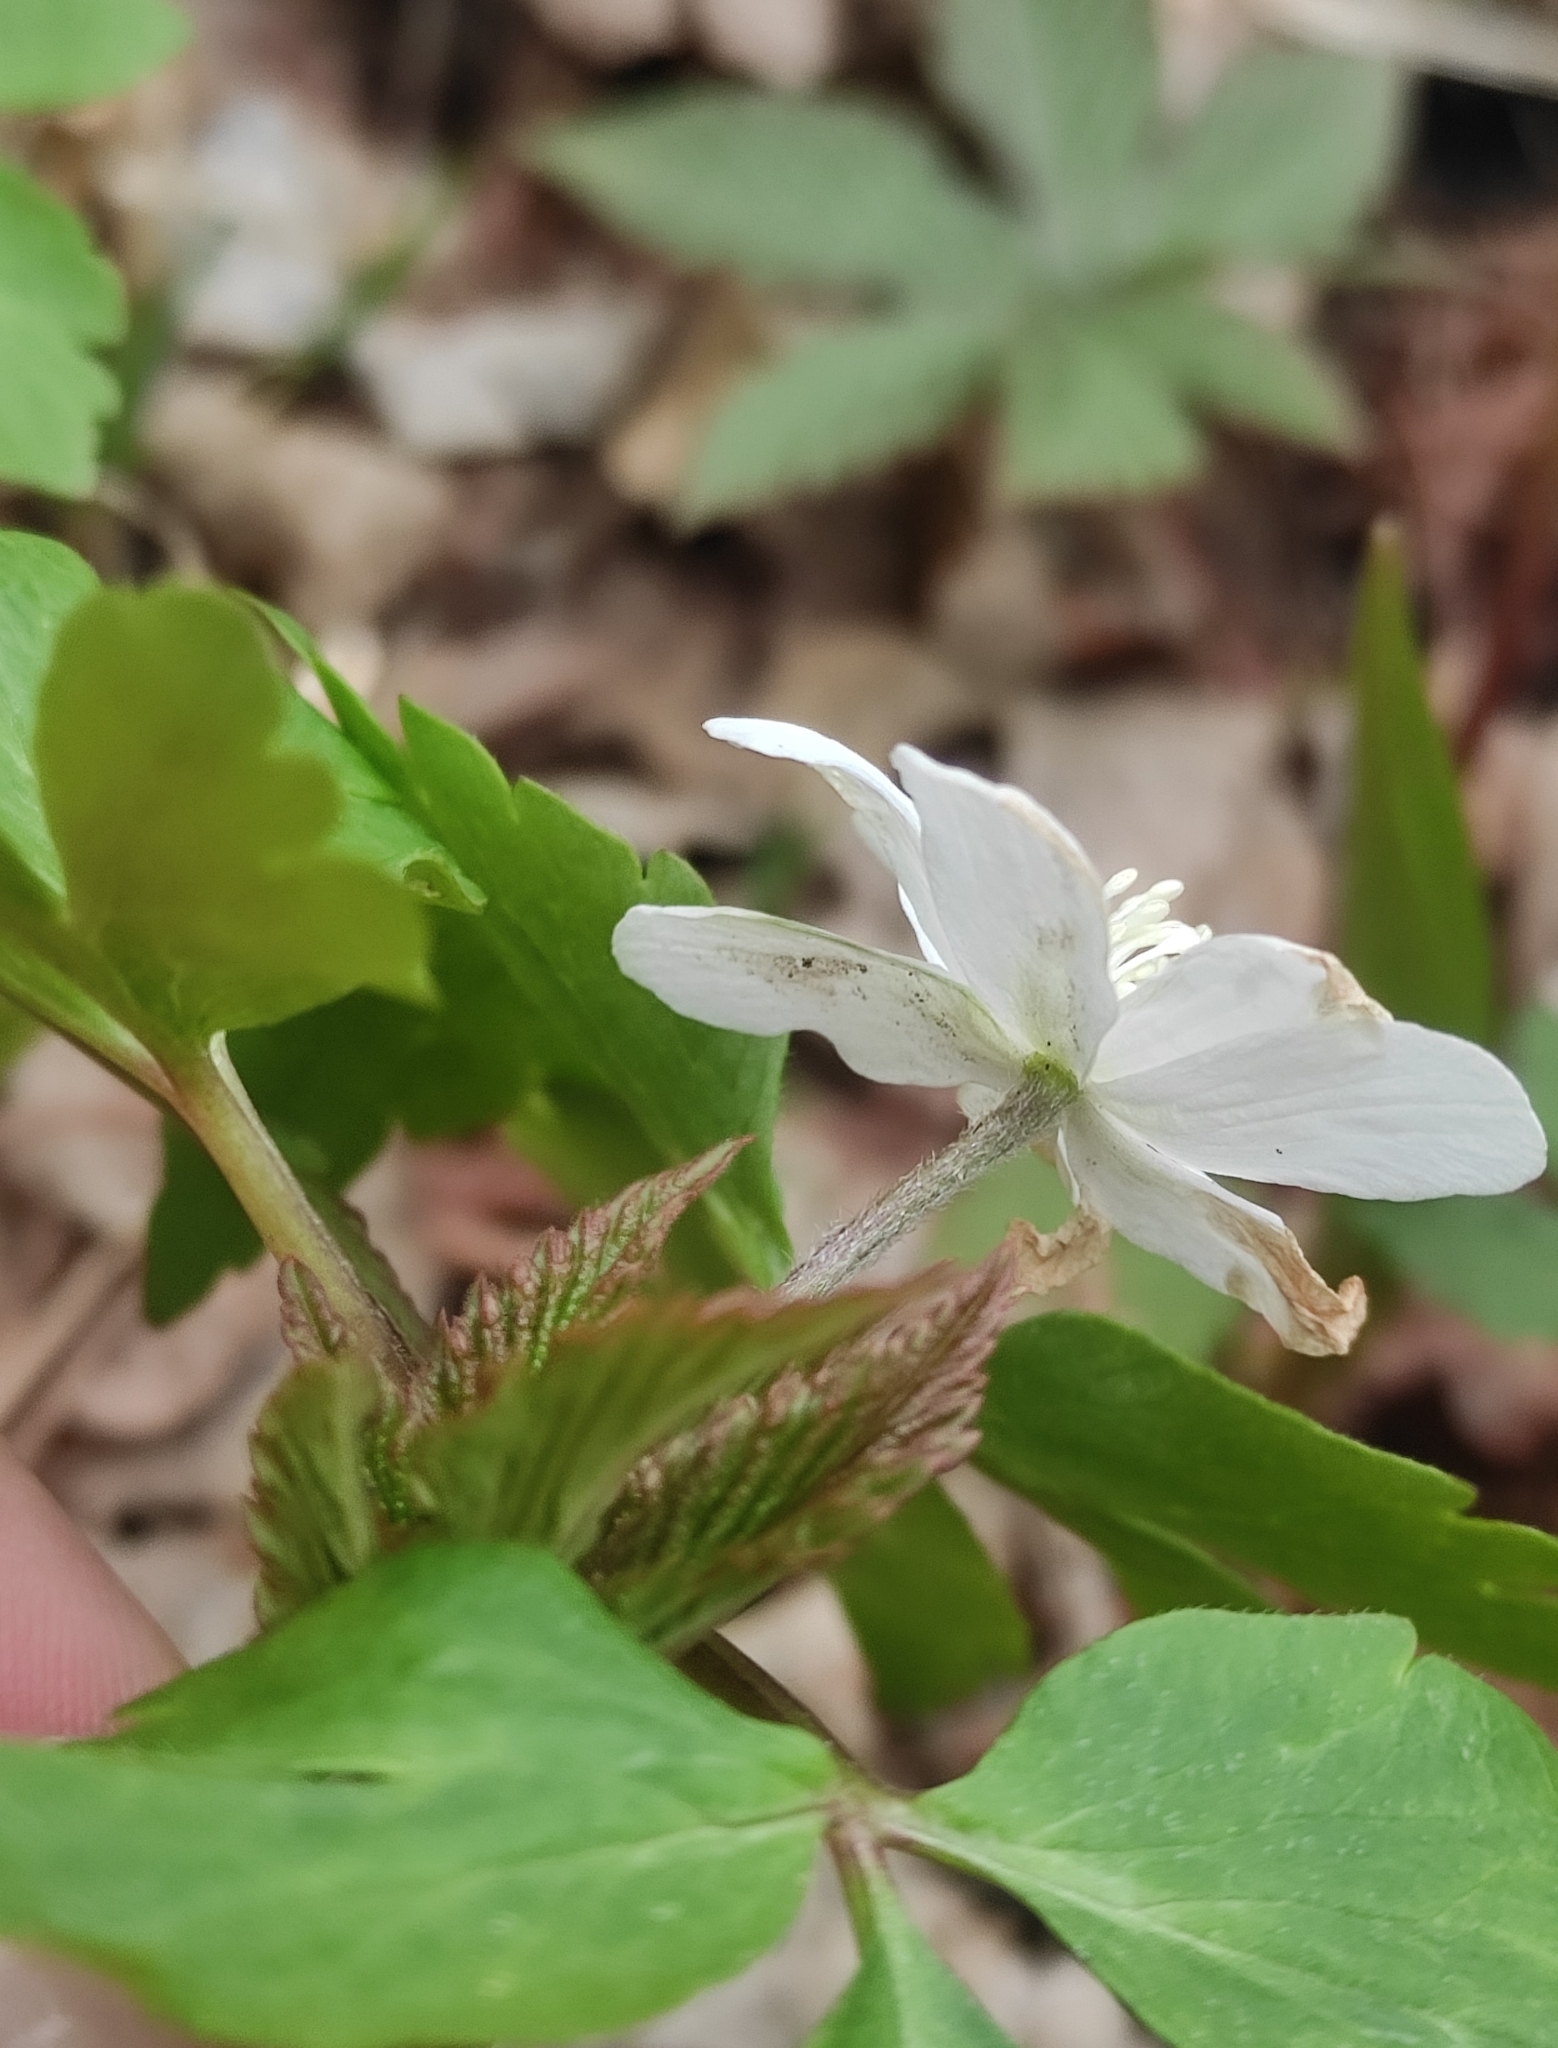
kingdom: Plantae
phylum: Tracheophyta
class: Magnoliopsida
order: Ranunculales
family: Ranunculaceae
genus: Anemone
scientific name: Anemone altaica
